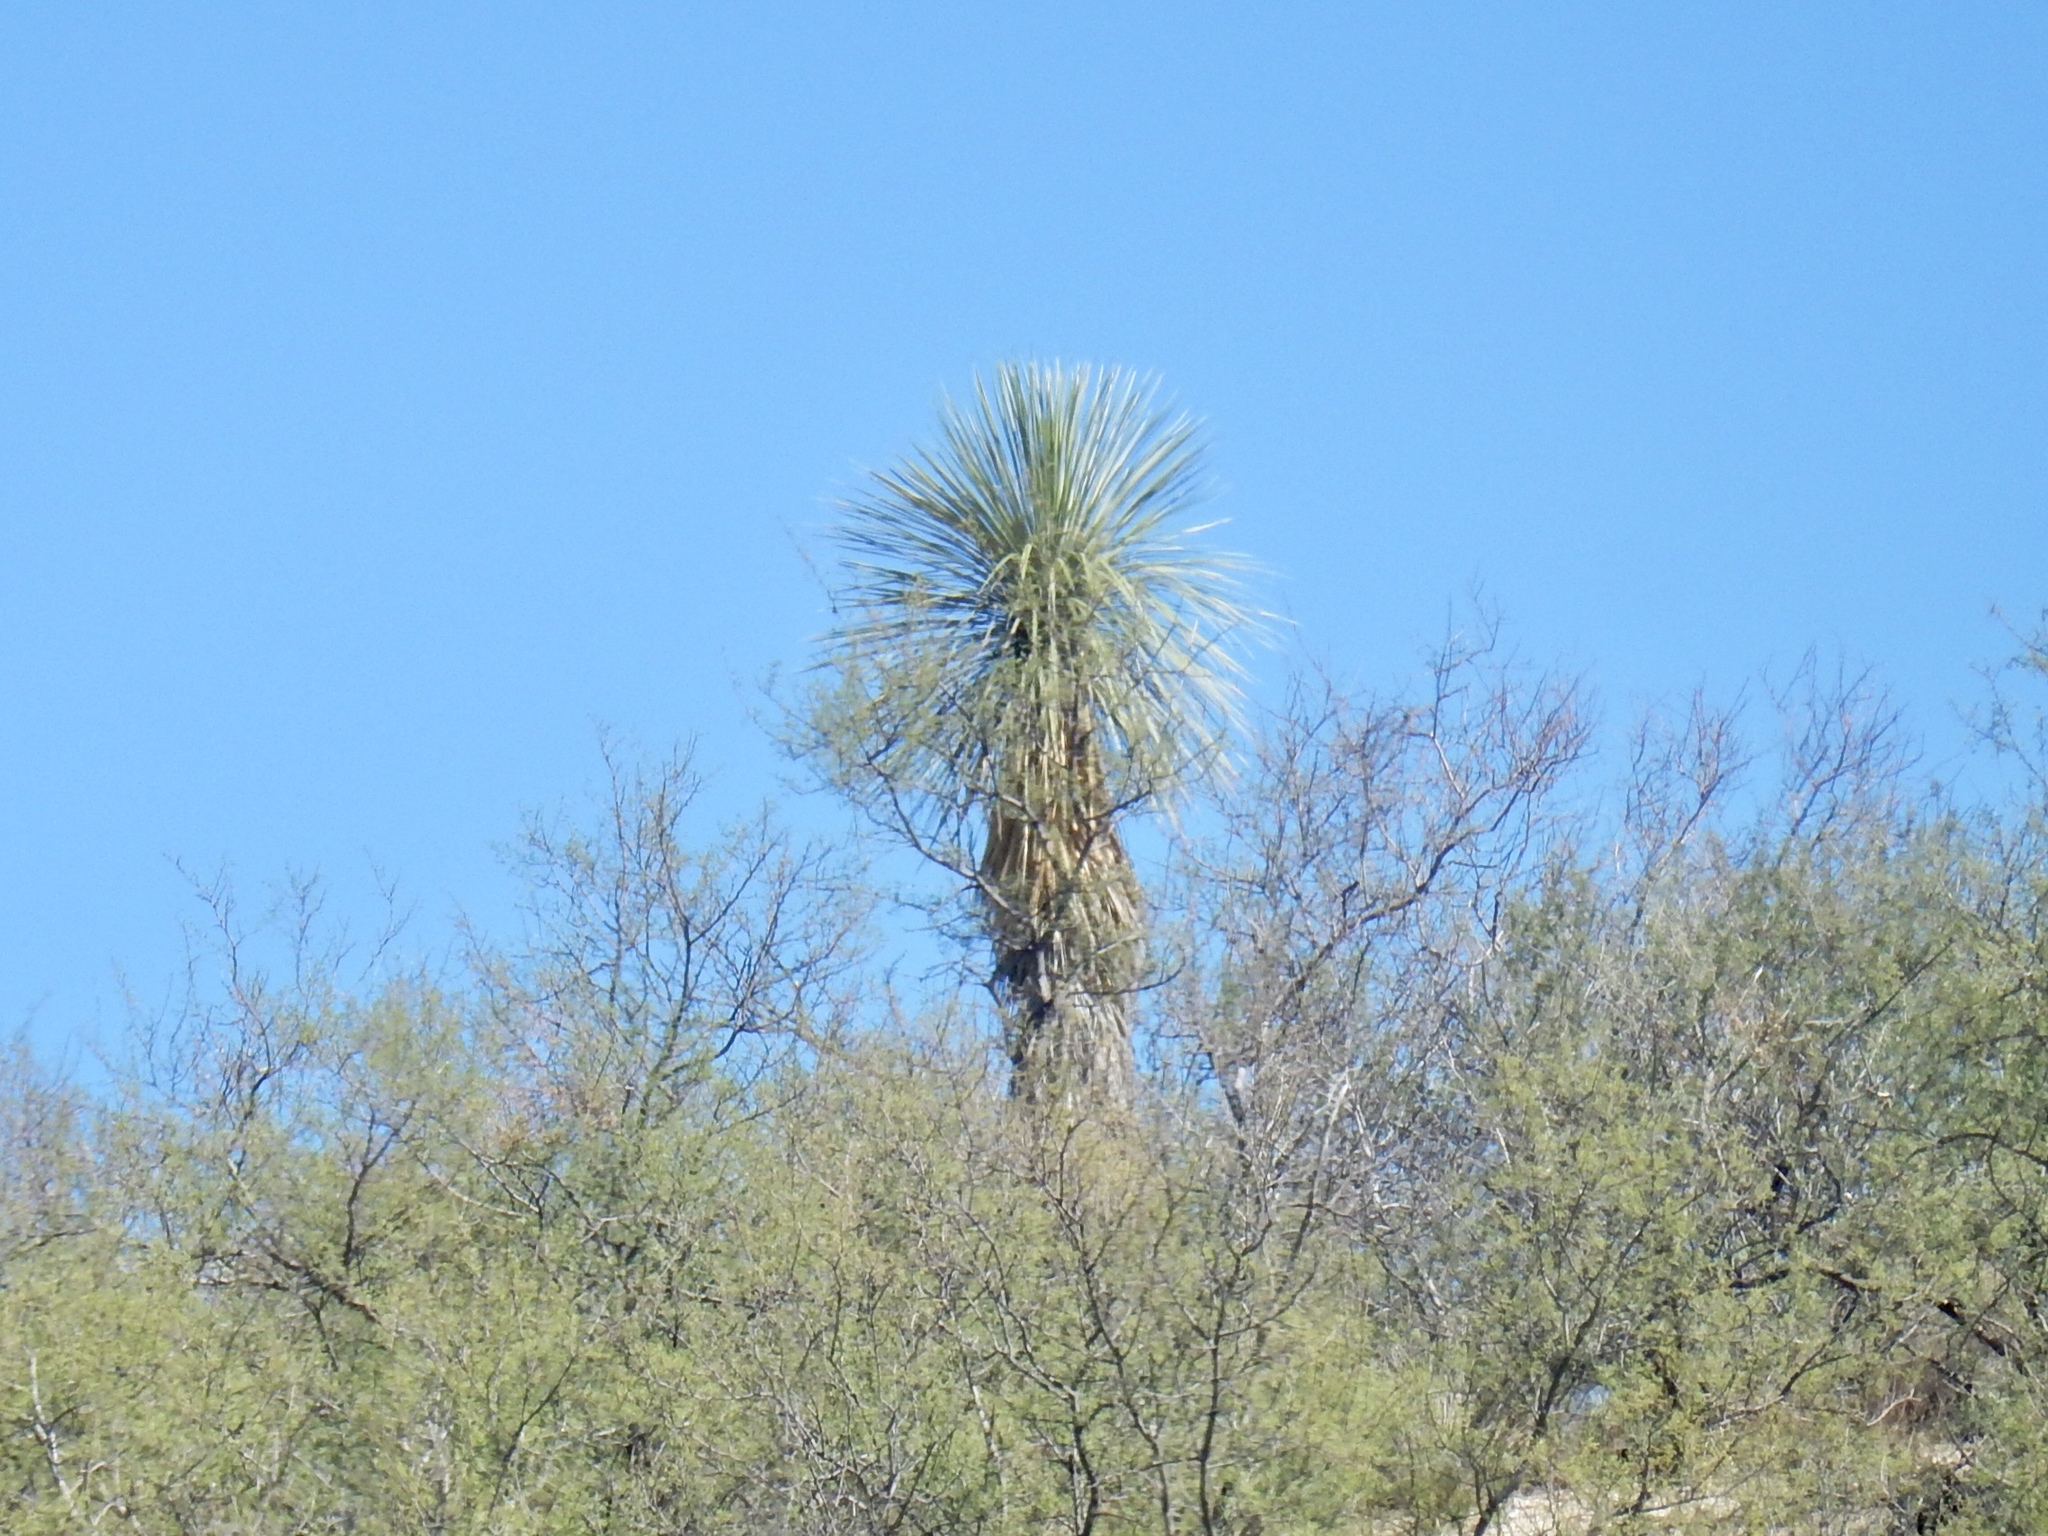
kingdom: Plantae
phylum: Tracheophyta
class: Liliopsida
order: Asparagales
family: Asparagaceae
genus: Yucca
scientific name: Yucca elata
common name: Palmella
